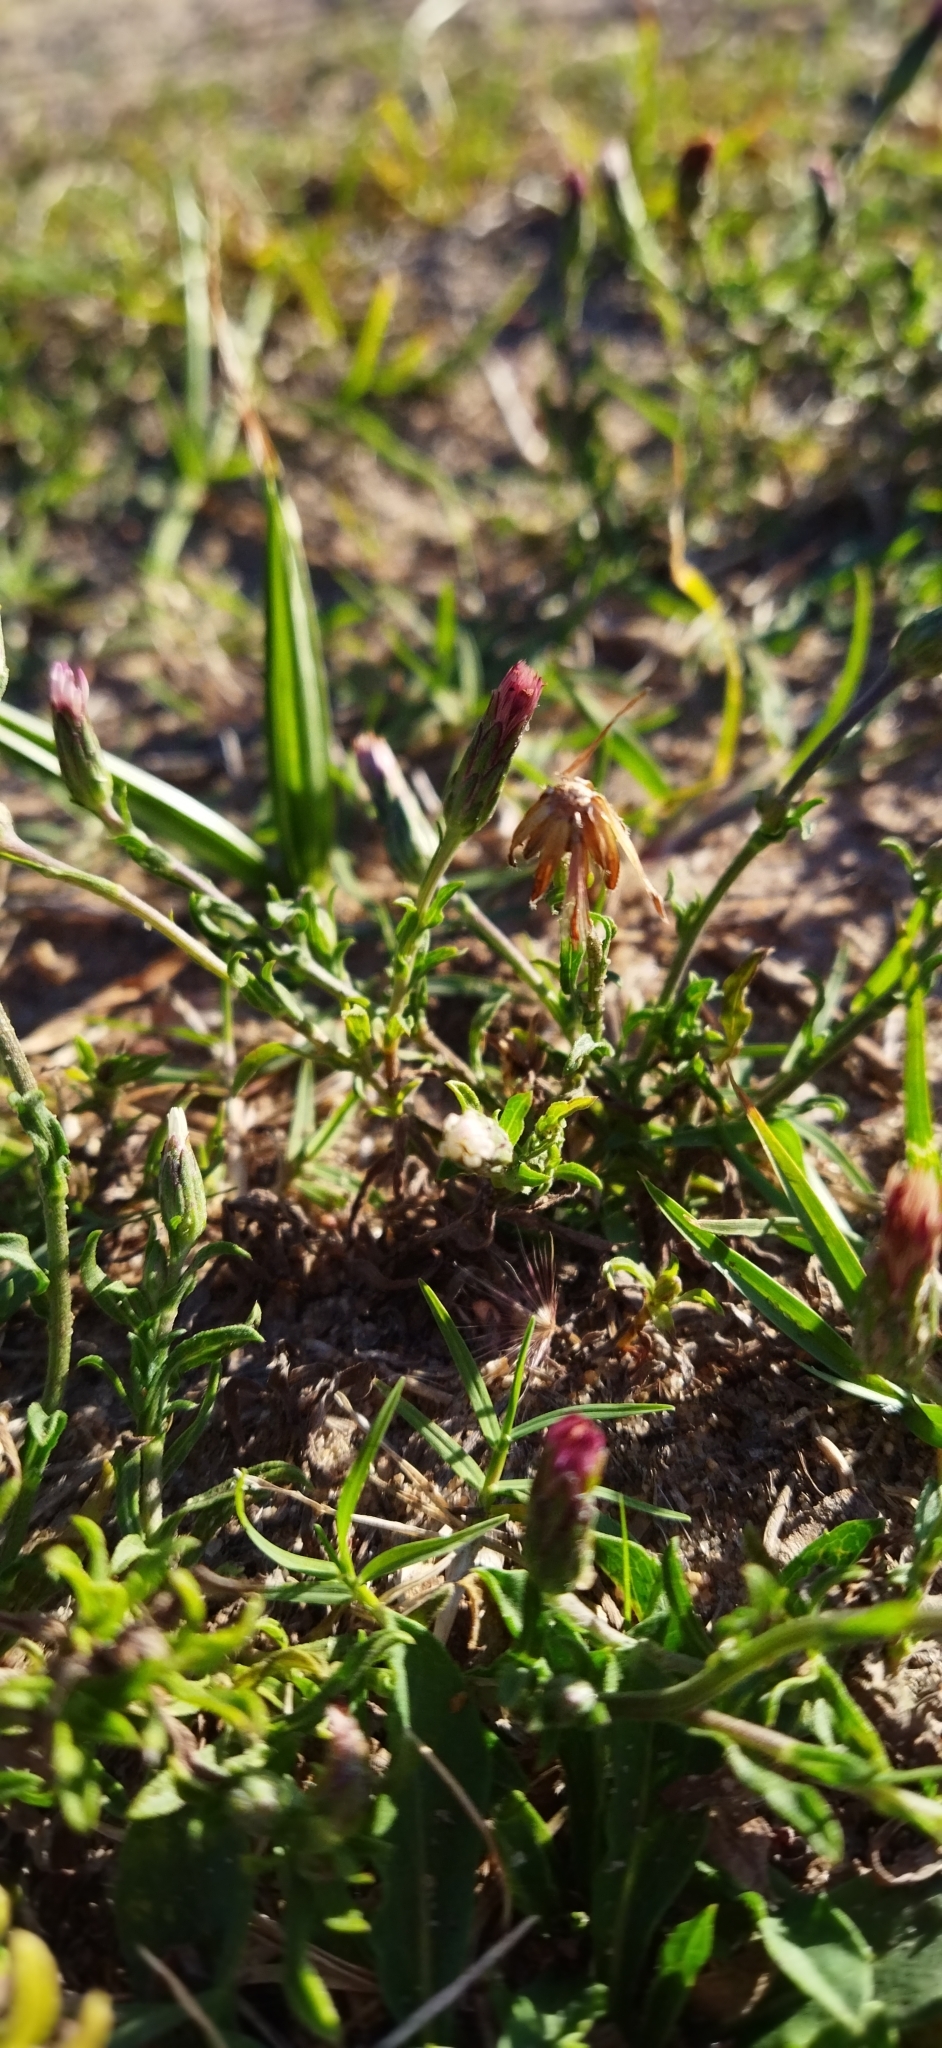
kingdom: Plantae
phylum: Tracheophyta
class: Magnoliopsida
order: Asterales
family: Asteraceae
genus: Noticastrum
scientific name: Noticastrum diffusum
